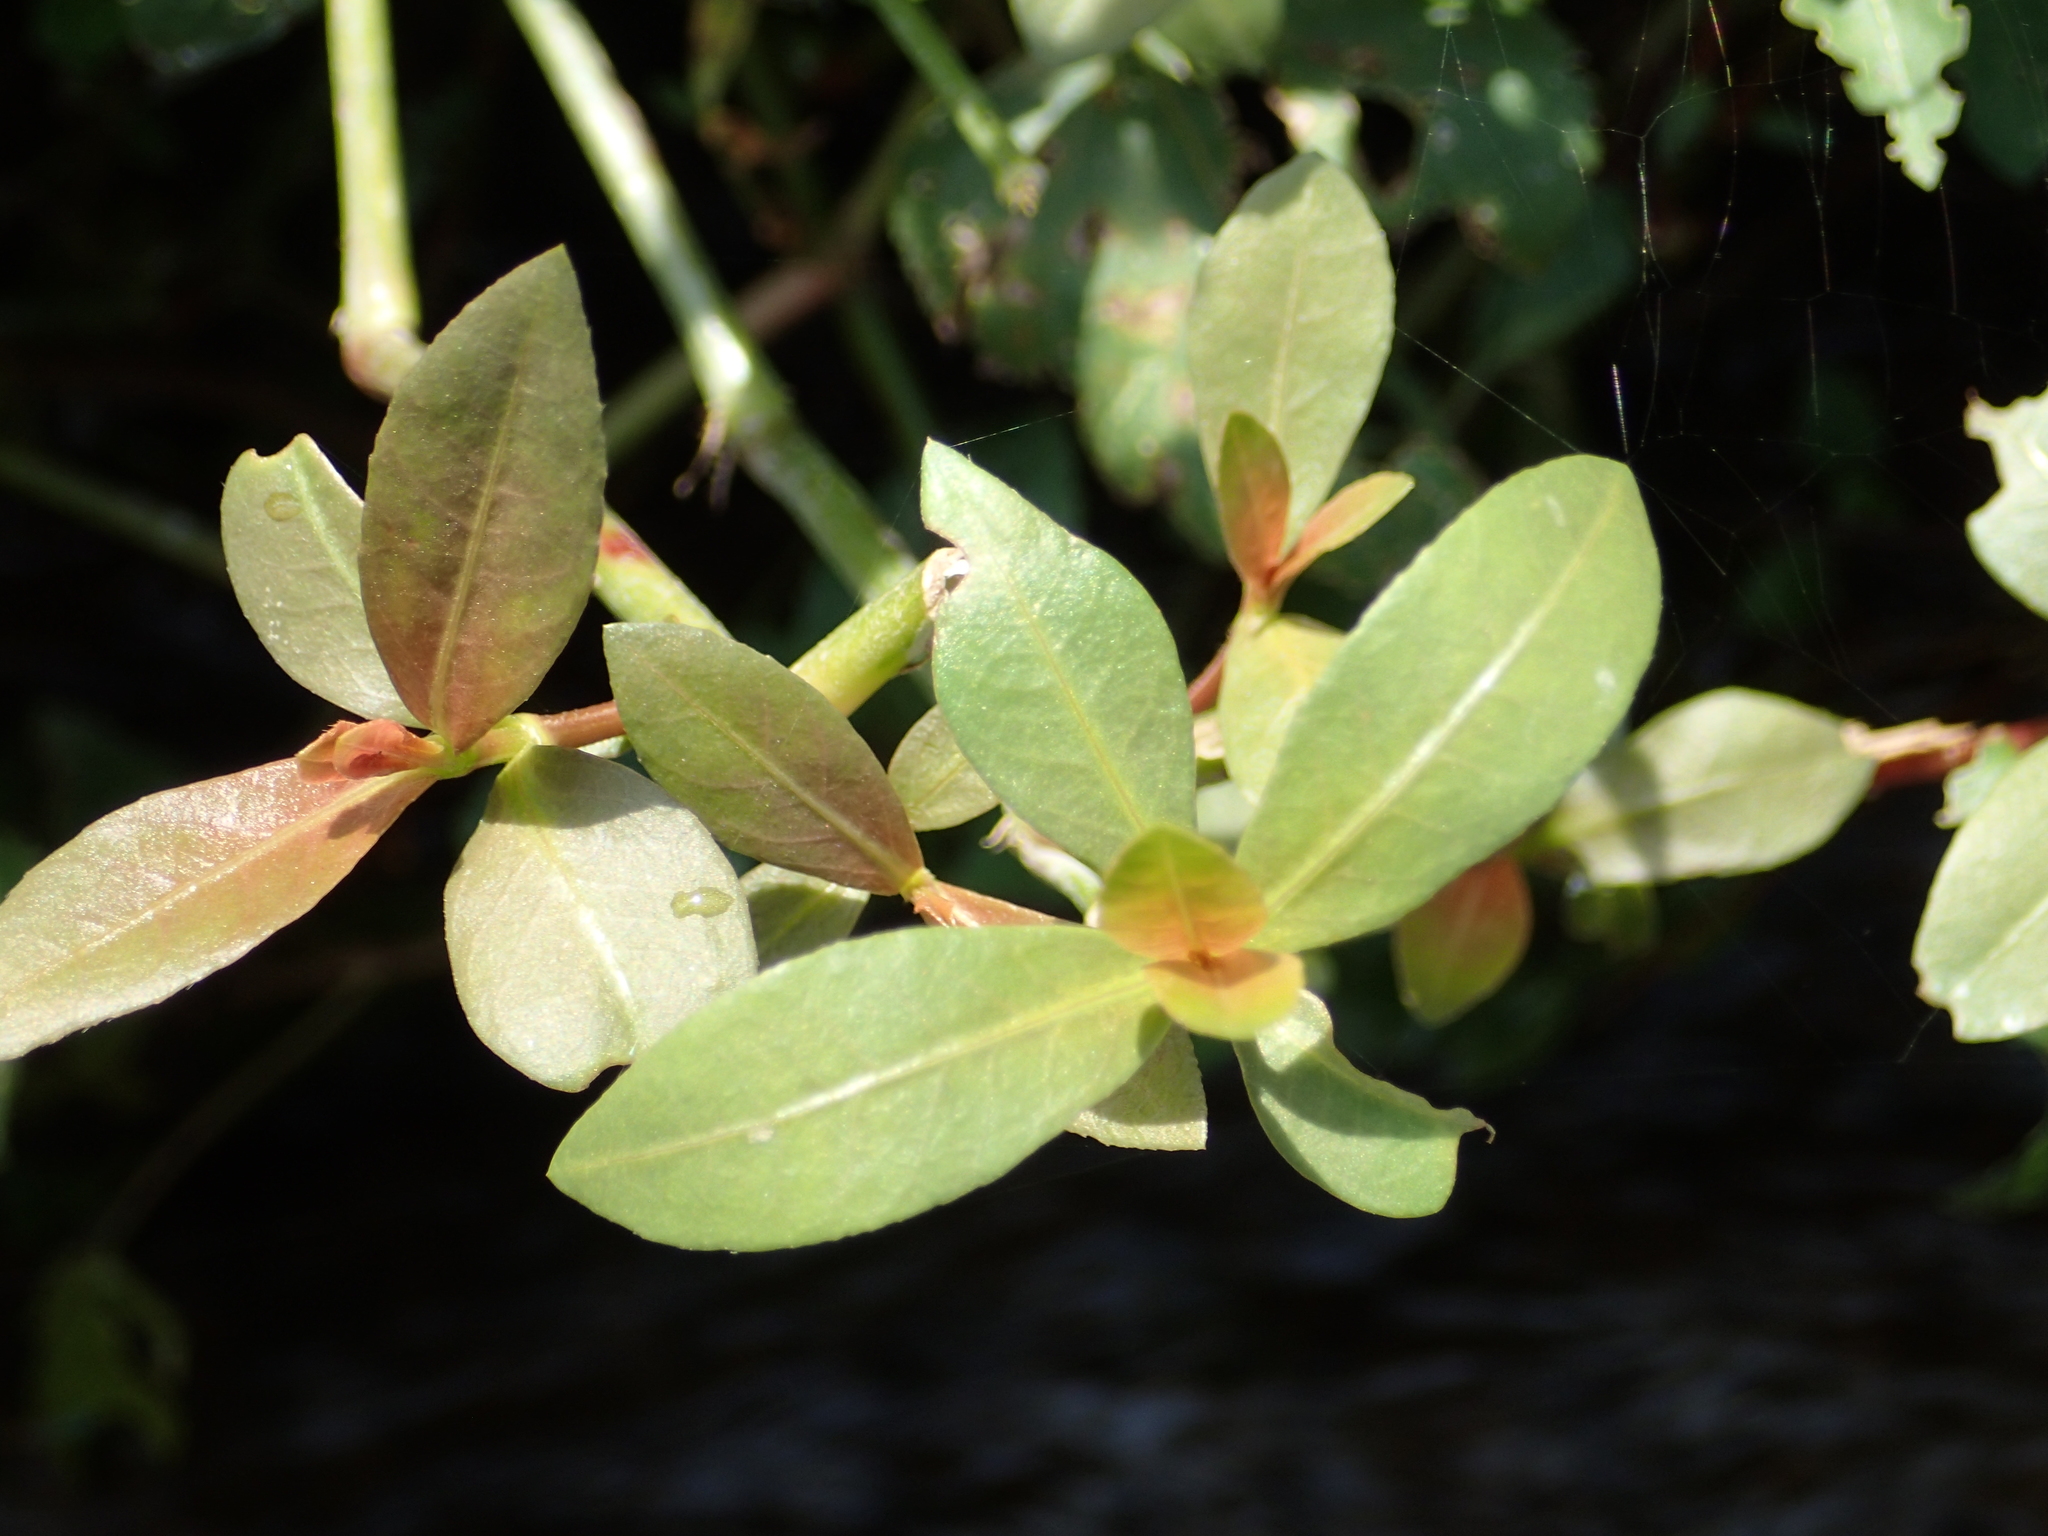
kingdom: Plantae
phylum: Tracheophyta
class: Magnoliopsida
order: Caryophyllales
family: Amaranthaceae
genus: Alternanthera
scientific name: Alternanthera philoxeroides
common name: Alligatorweed
